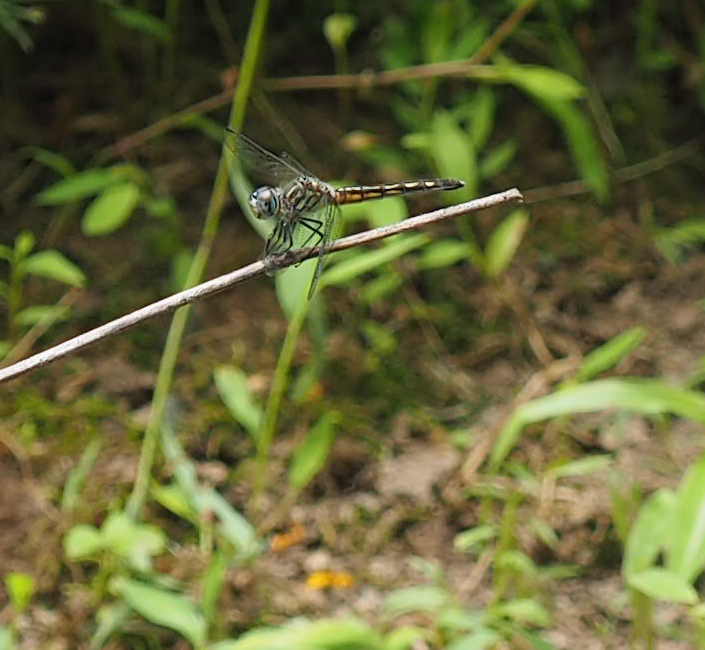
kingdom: Animalia
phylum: Arthropoda
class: Insecta
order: Odonata
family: Libellulidae
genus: Pachydiplax
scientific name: Pachydiplax longipennis
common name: Blue dasher
